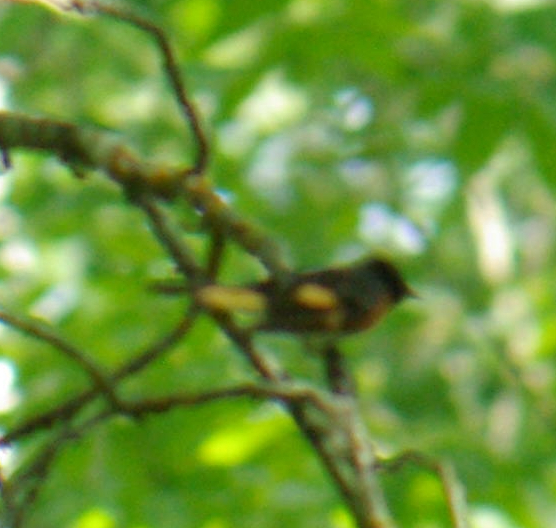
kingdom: Animalia
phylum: Chordata
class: Aves
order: Passeriformes
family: Parulidae
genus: Setophaga
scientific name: Setophaga ruticilla
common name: American redstart
